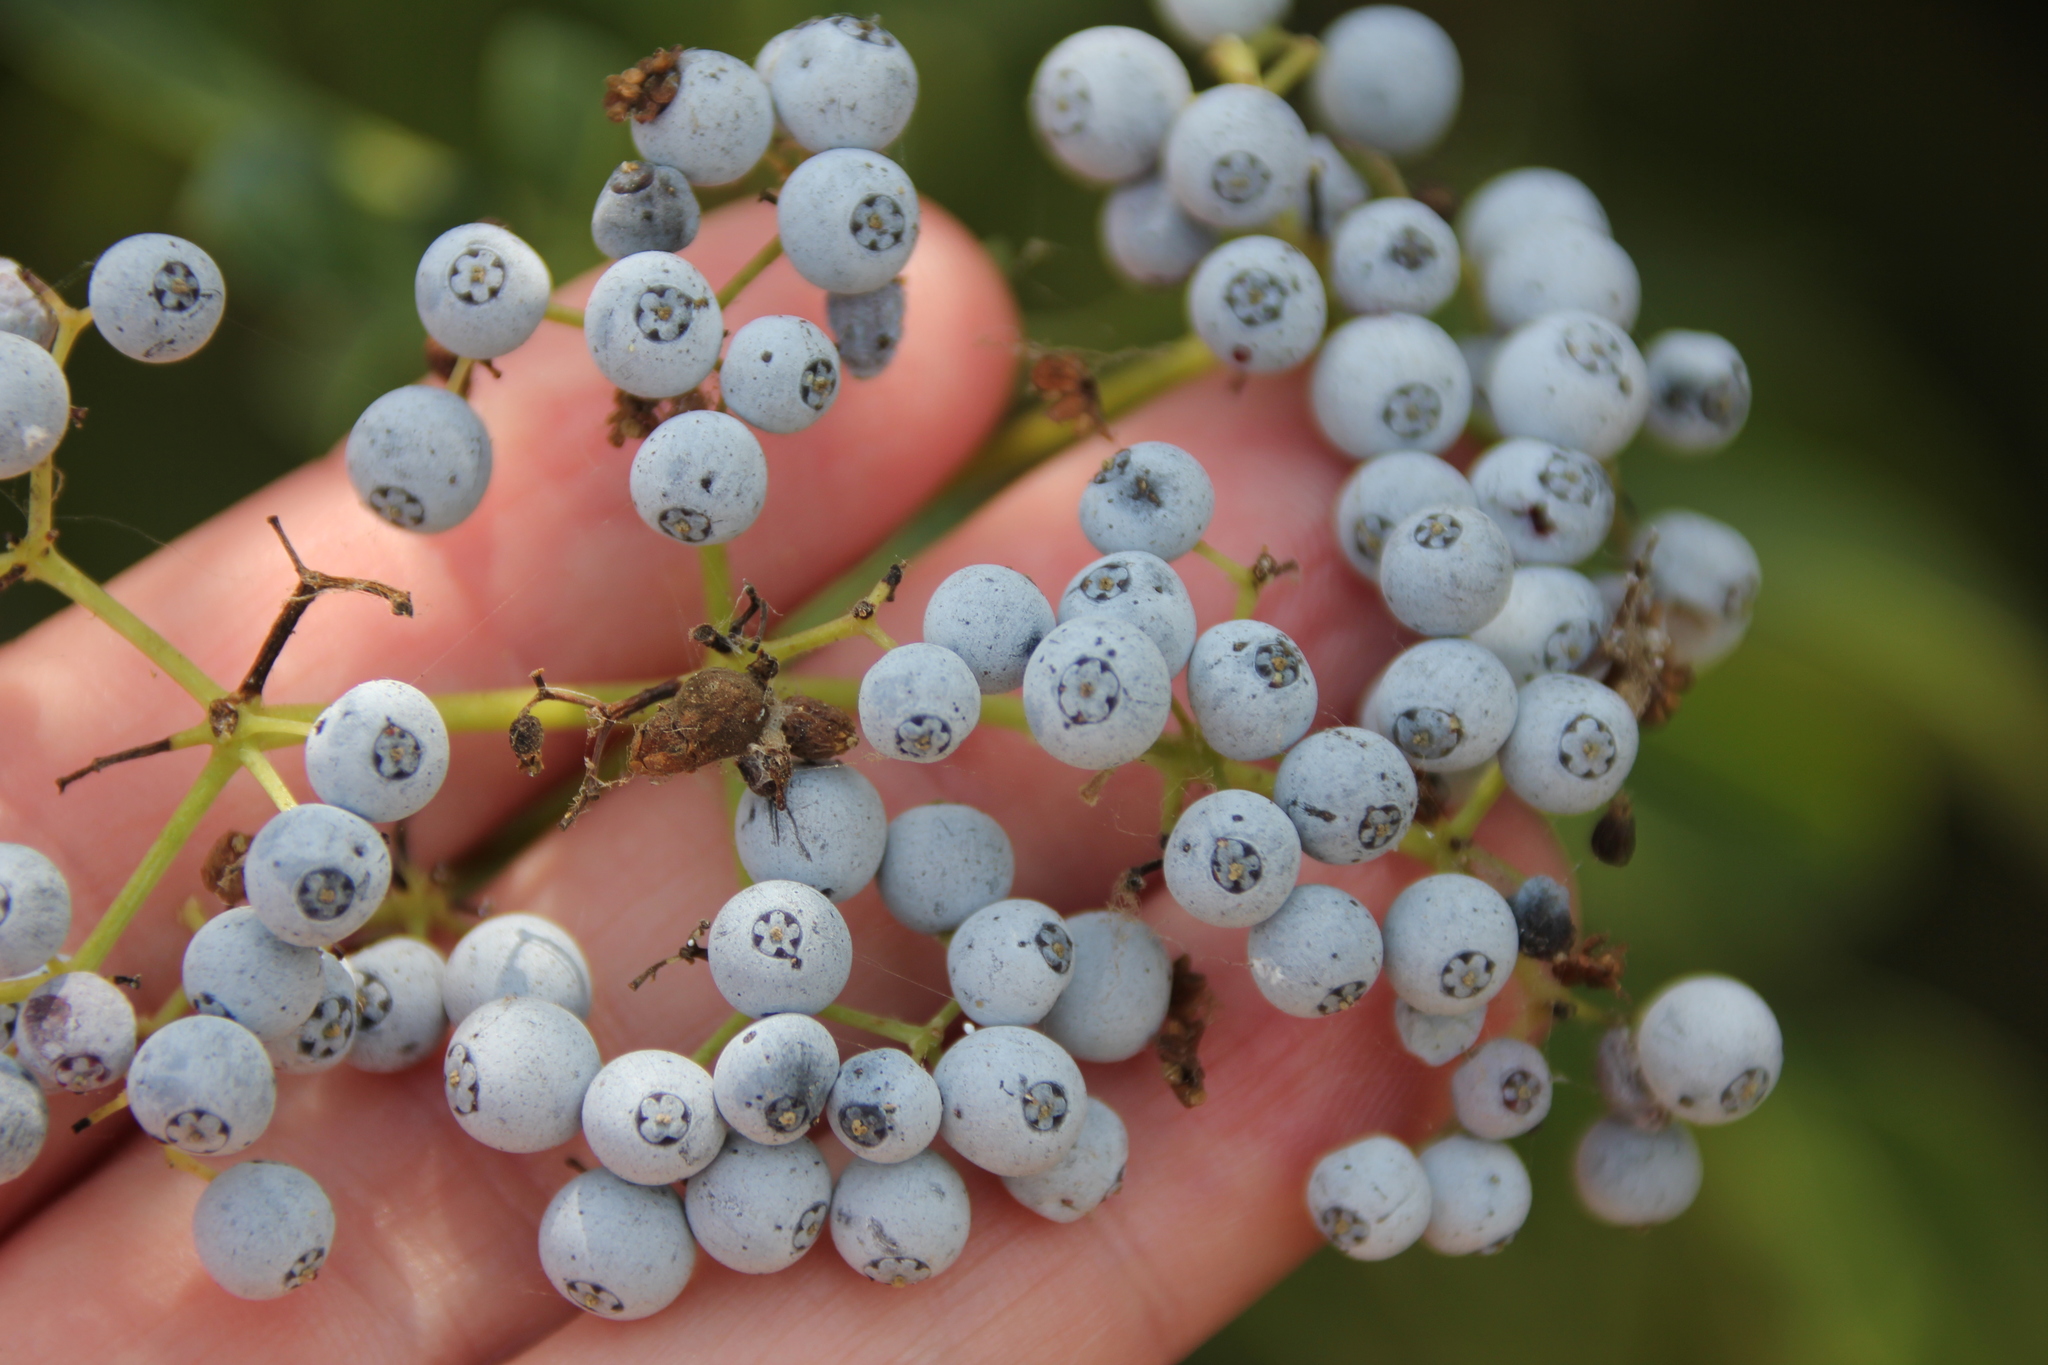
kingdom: Plantae
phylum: Tracheophyta
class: Magnoliopsida
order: Dipsacales
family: Viburnaceae
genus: Sambucus
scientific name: Sambucus cerulea
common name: Blue elder
